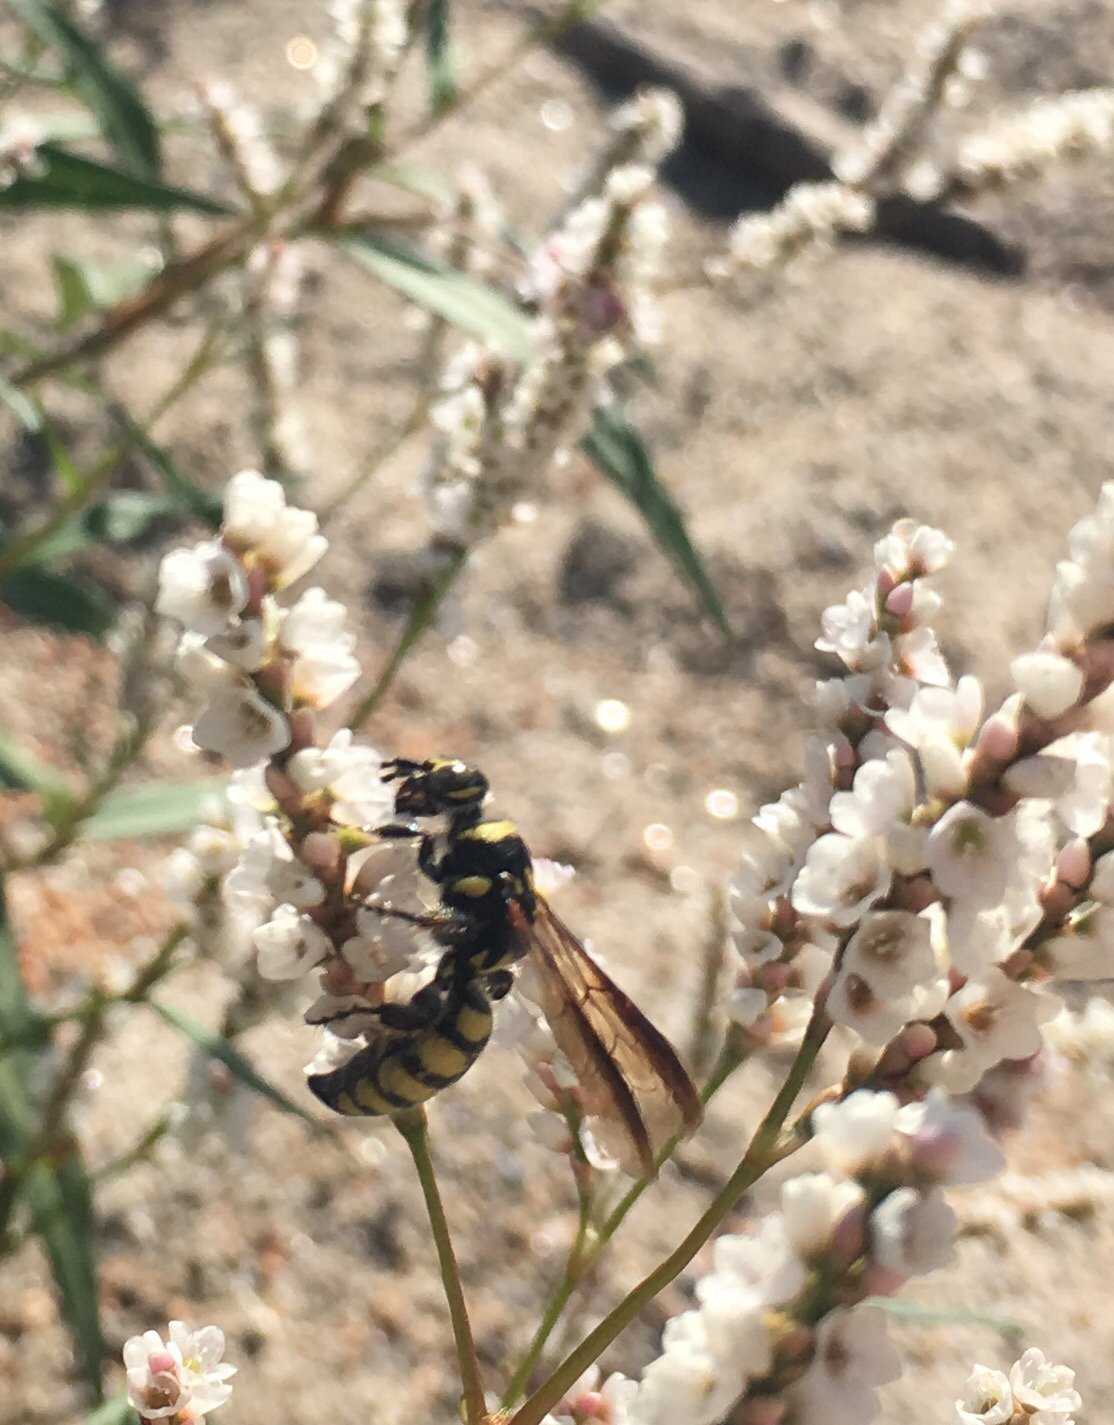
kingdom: Animalia
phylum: Arthropoda
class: Insecta
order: Hymenoptera
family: Tiphiidae
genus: Myzinum
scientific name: Myzinum maculatum
